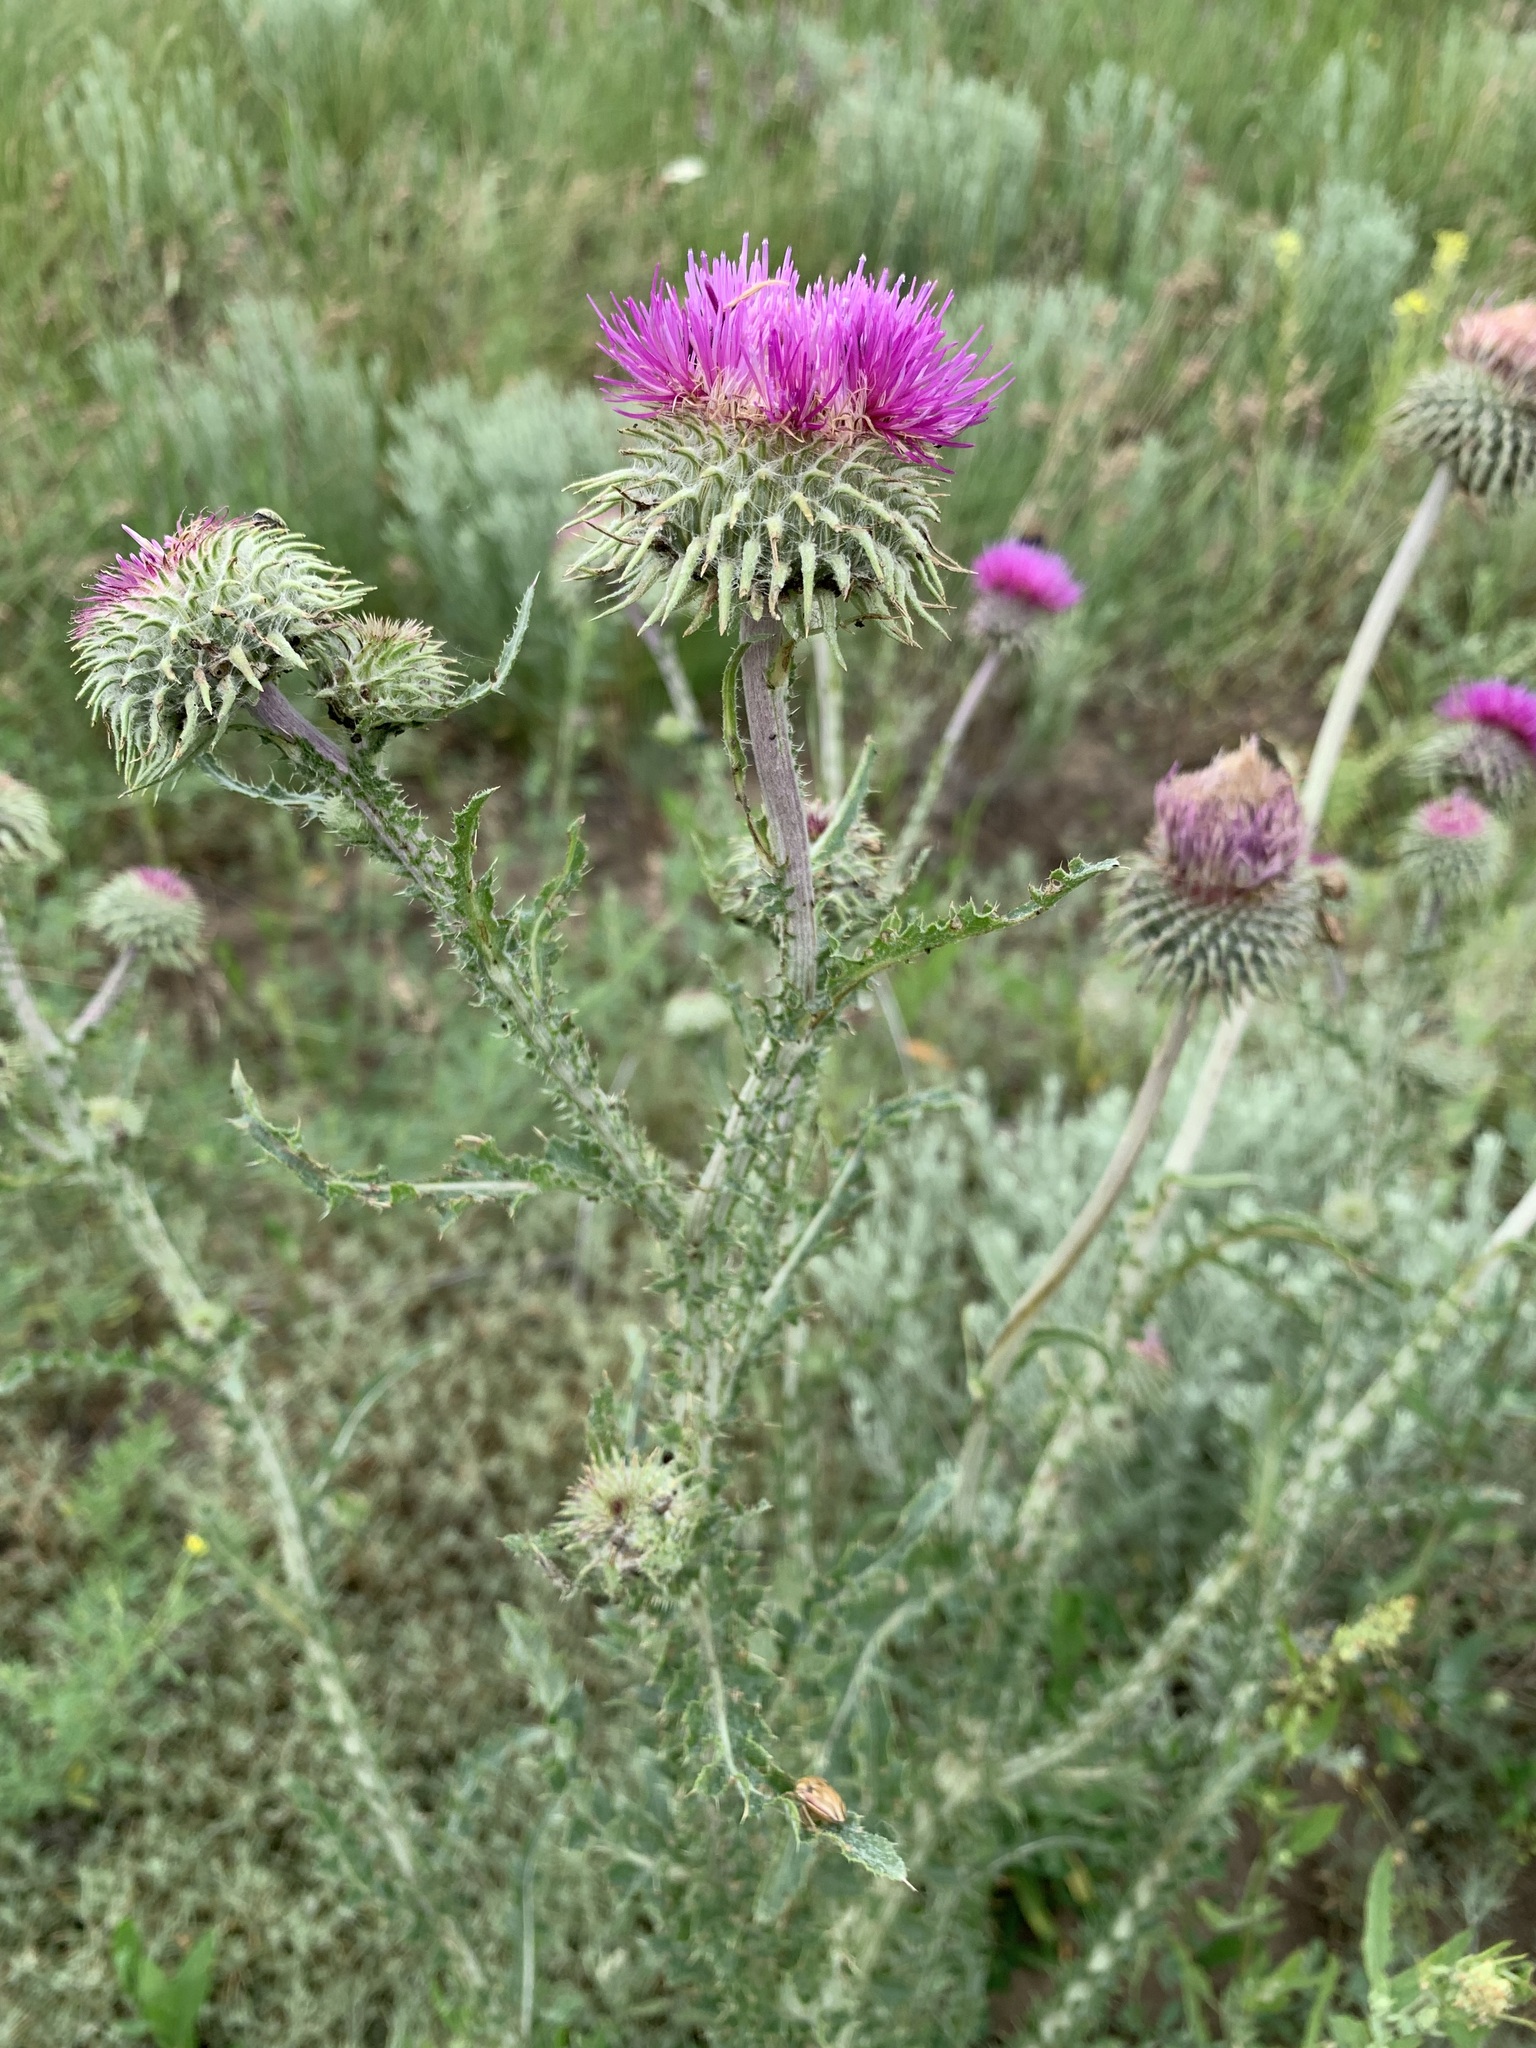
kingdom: Plantae
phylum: Tracheophyta
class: Magnoliopsida
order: Asterales
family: Asteraceae
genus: Carduus
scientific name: Carduus uncinatus
